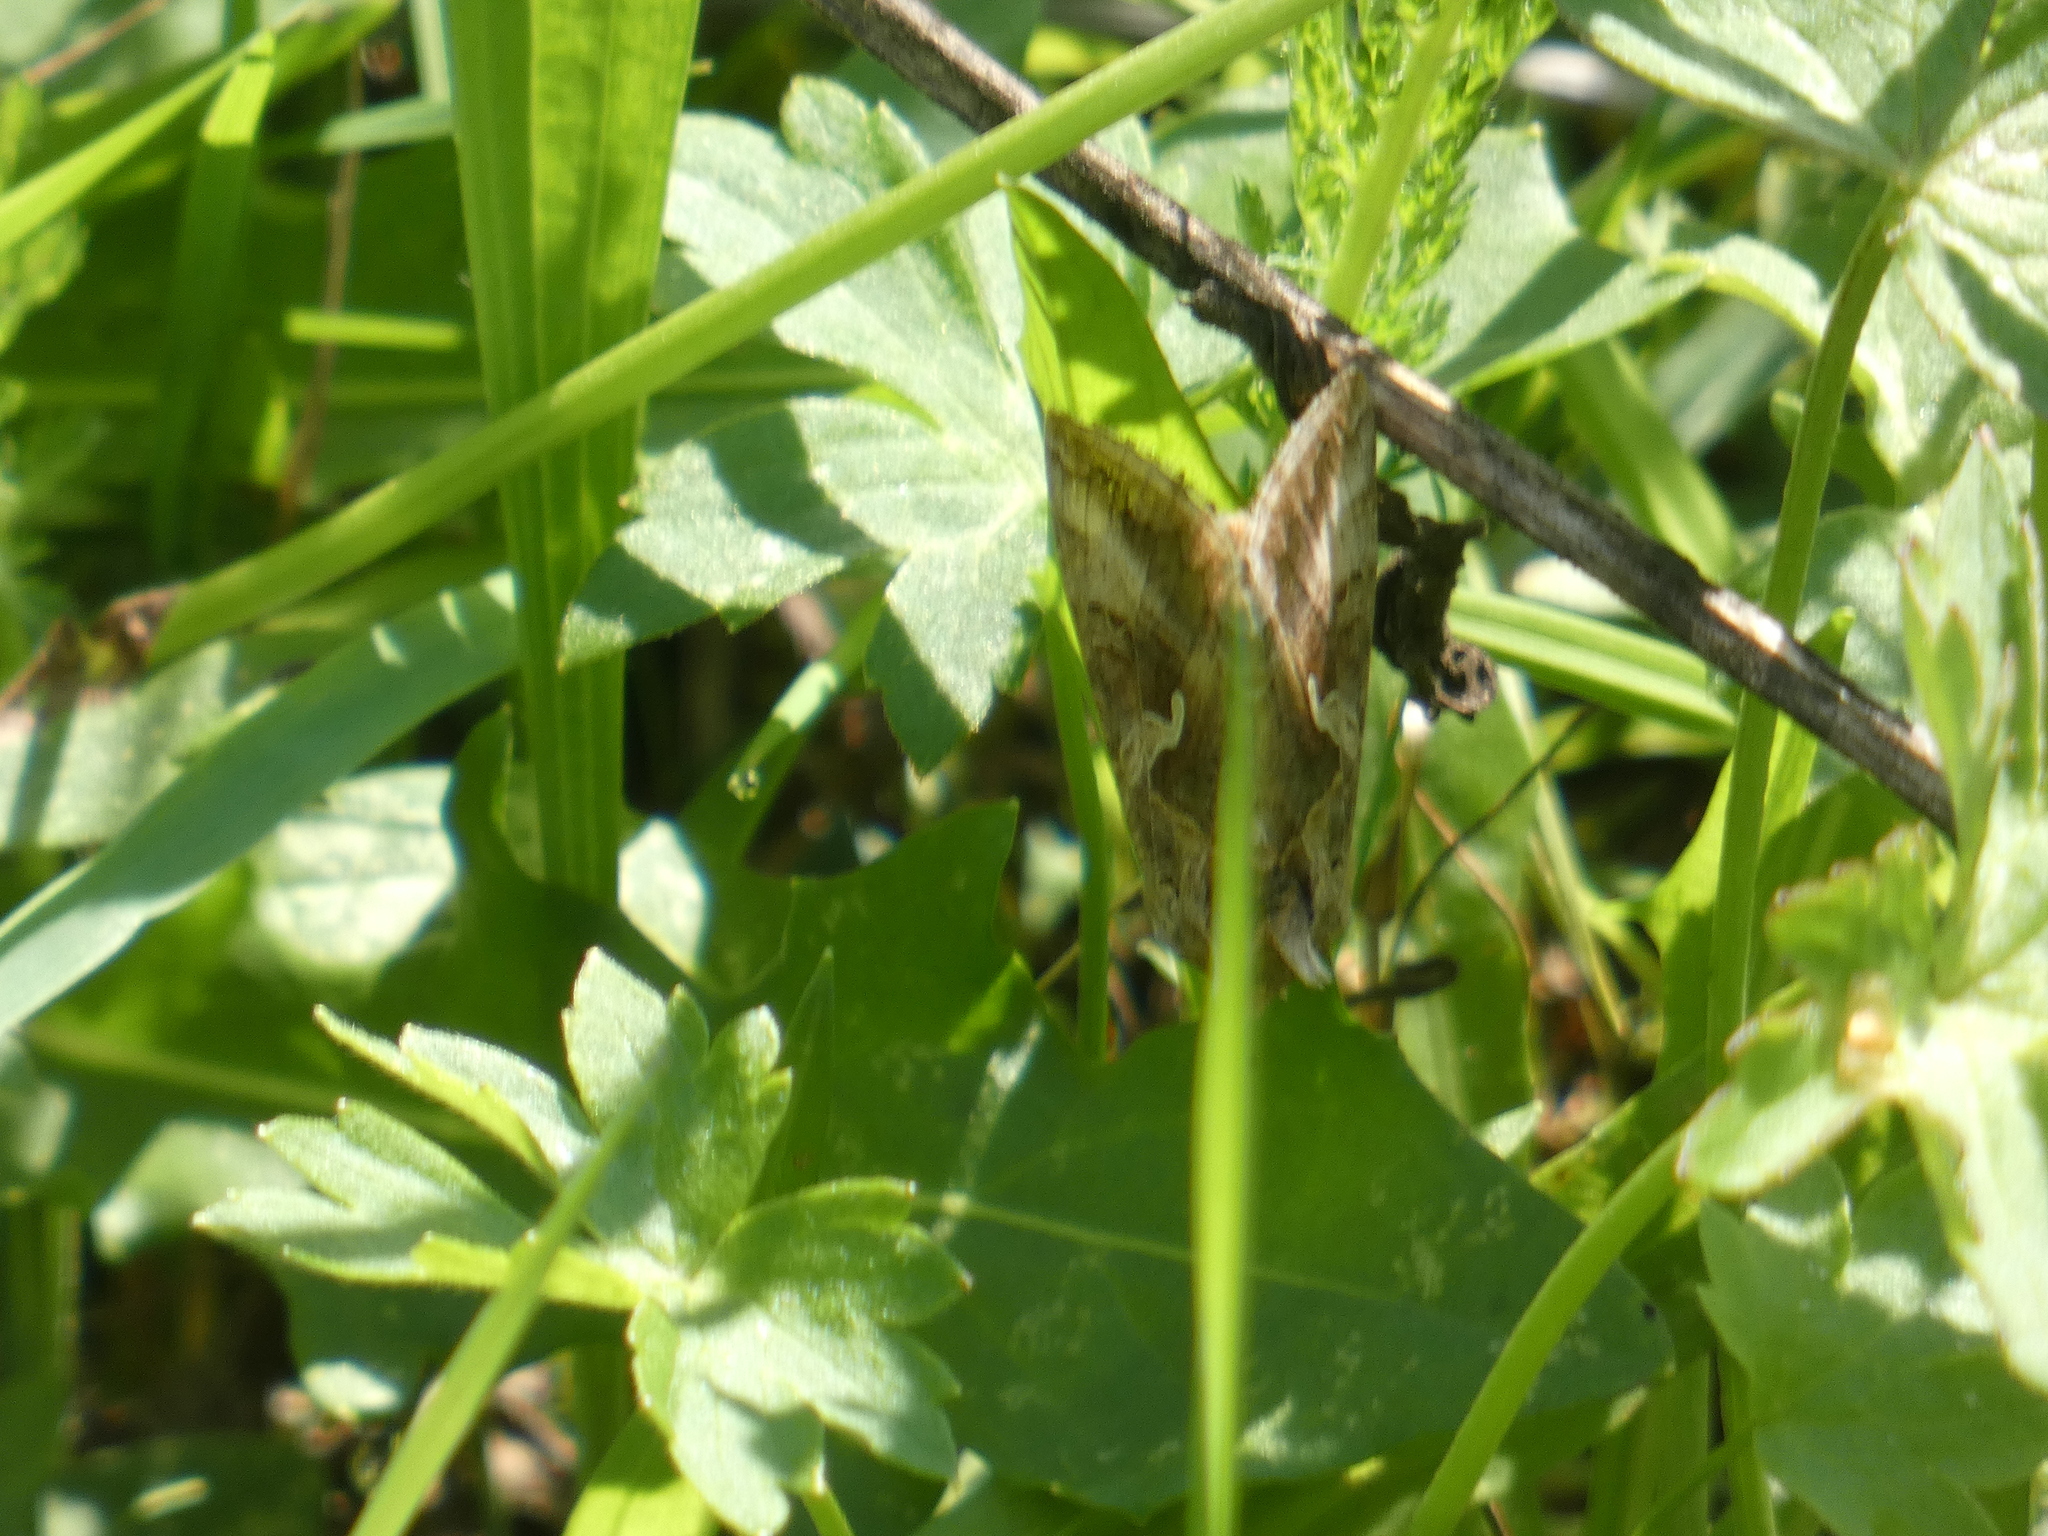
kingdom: Animalia
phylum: Arthropoda
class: Insecta
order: Lepidoptera
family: Noctuidae
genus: Autographa
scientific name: Autographa gamma
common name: Silver y
